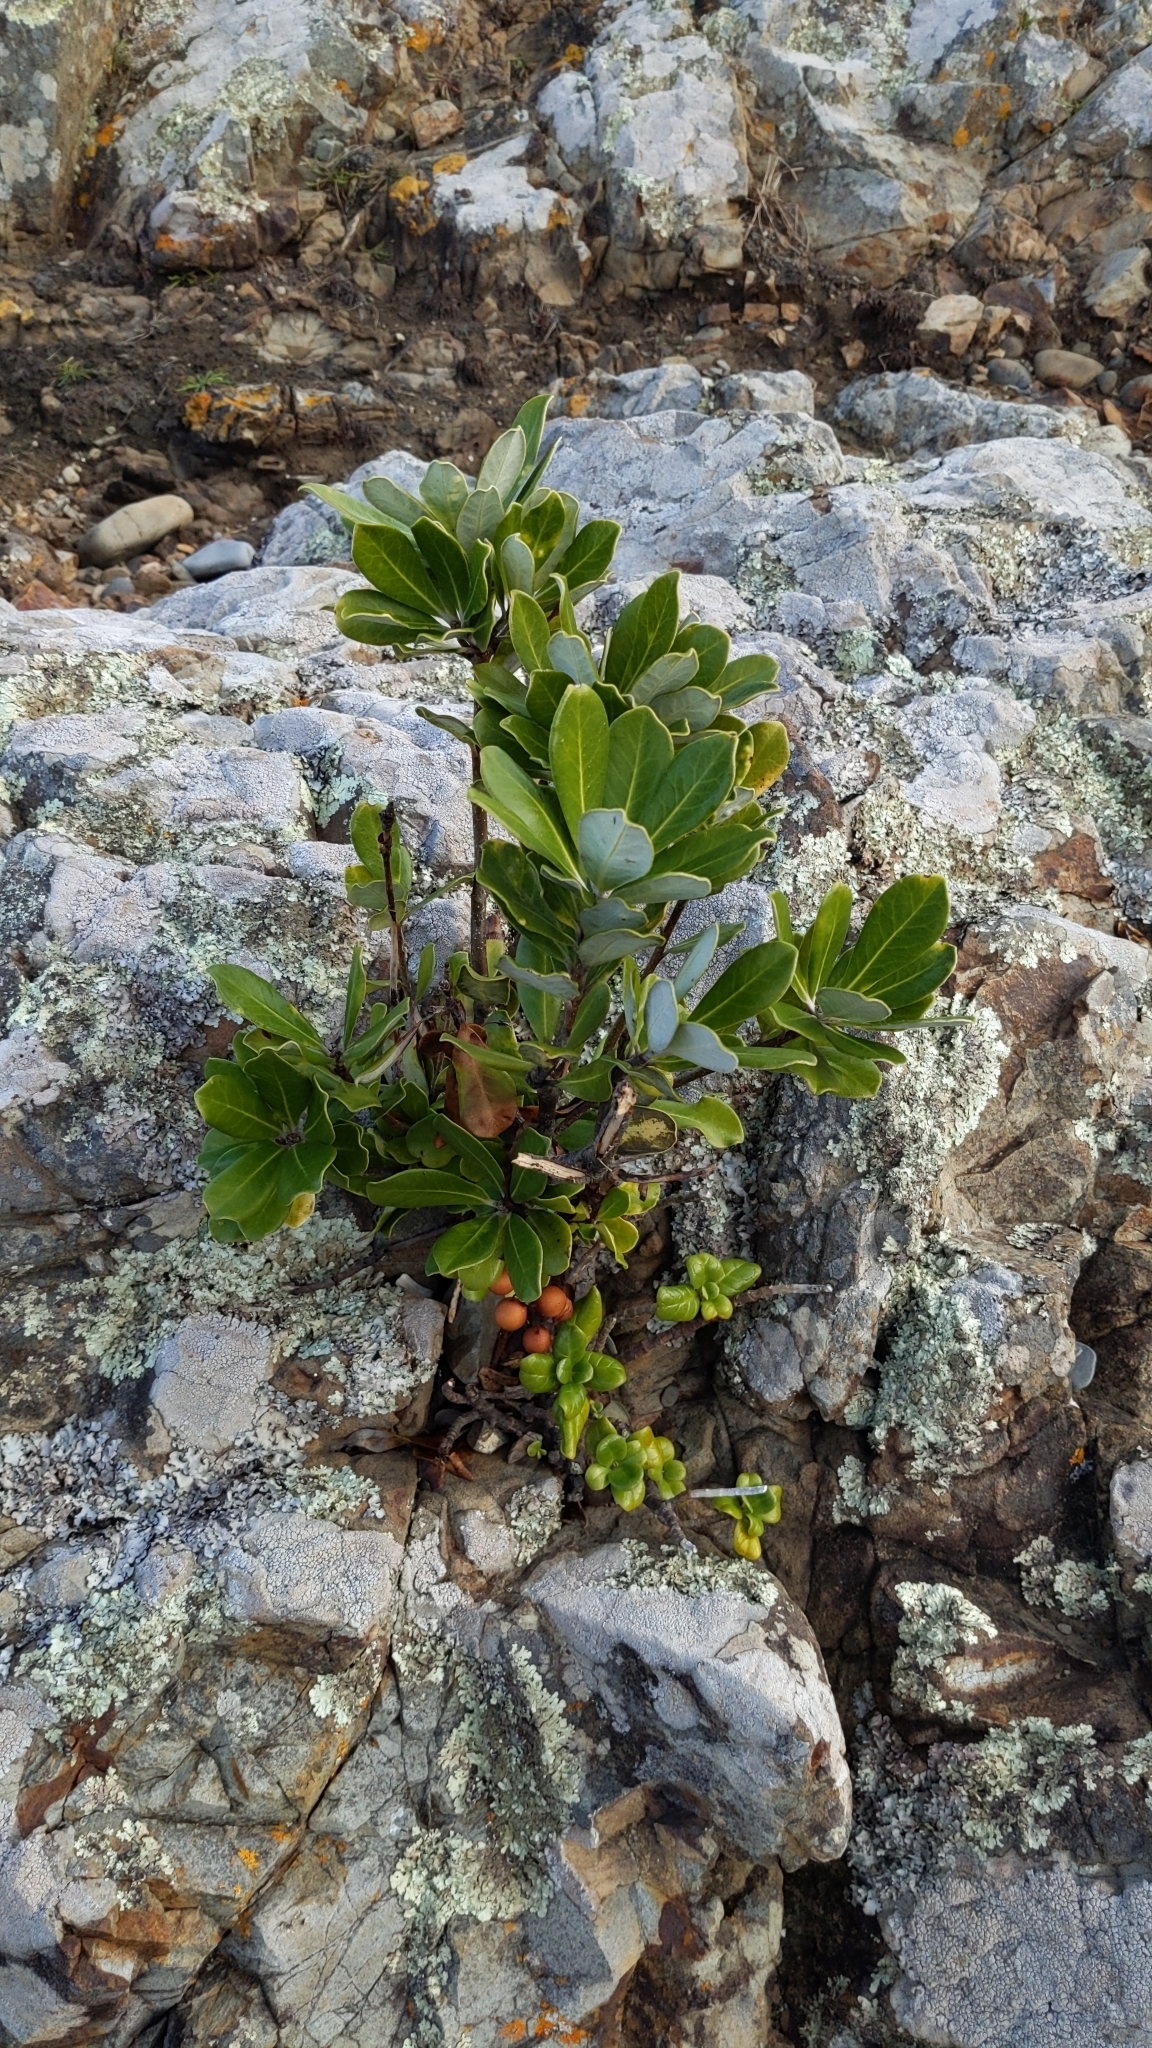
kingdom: Plantae
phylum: Tracheophyta
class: Magnoliopsida
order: Apiales
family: Pittosporaceae
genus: Pittosporum
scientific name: Pittosporum crassifolium
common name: Karo
